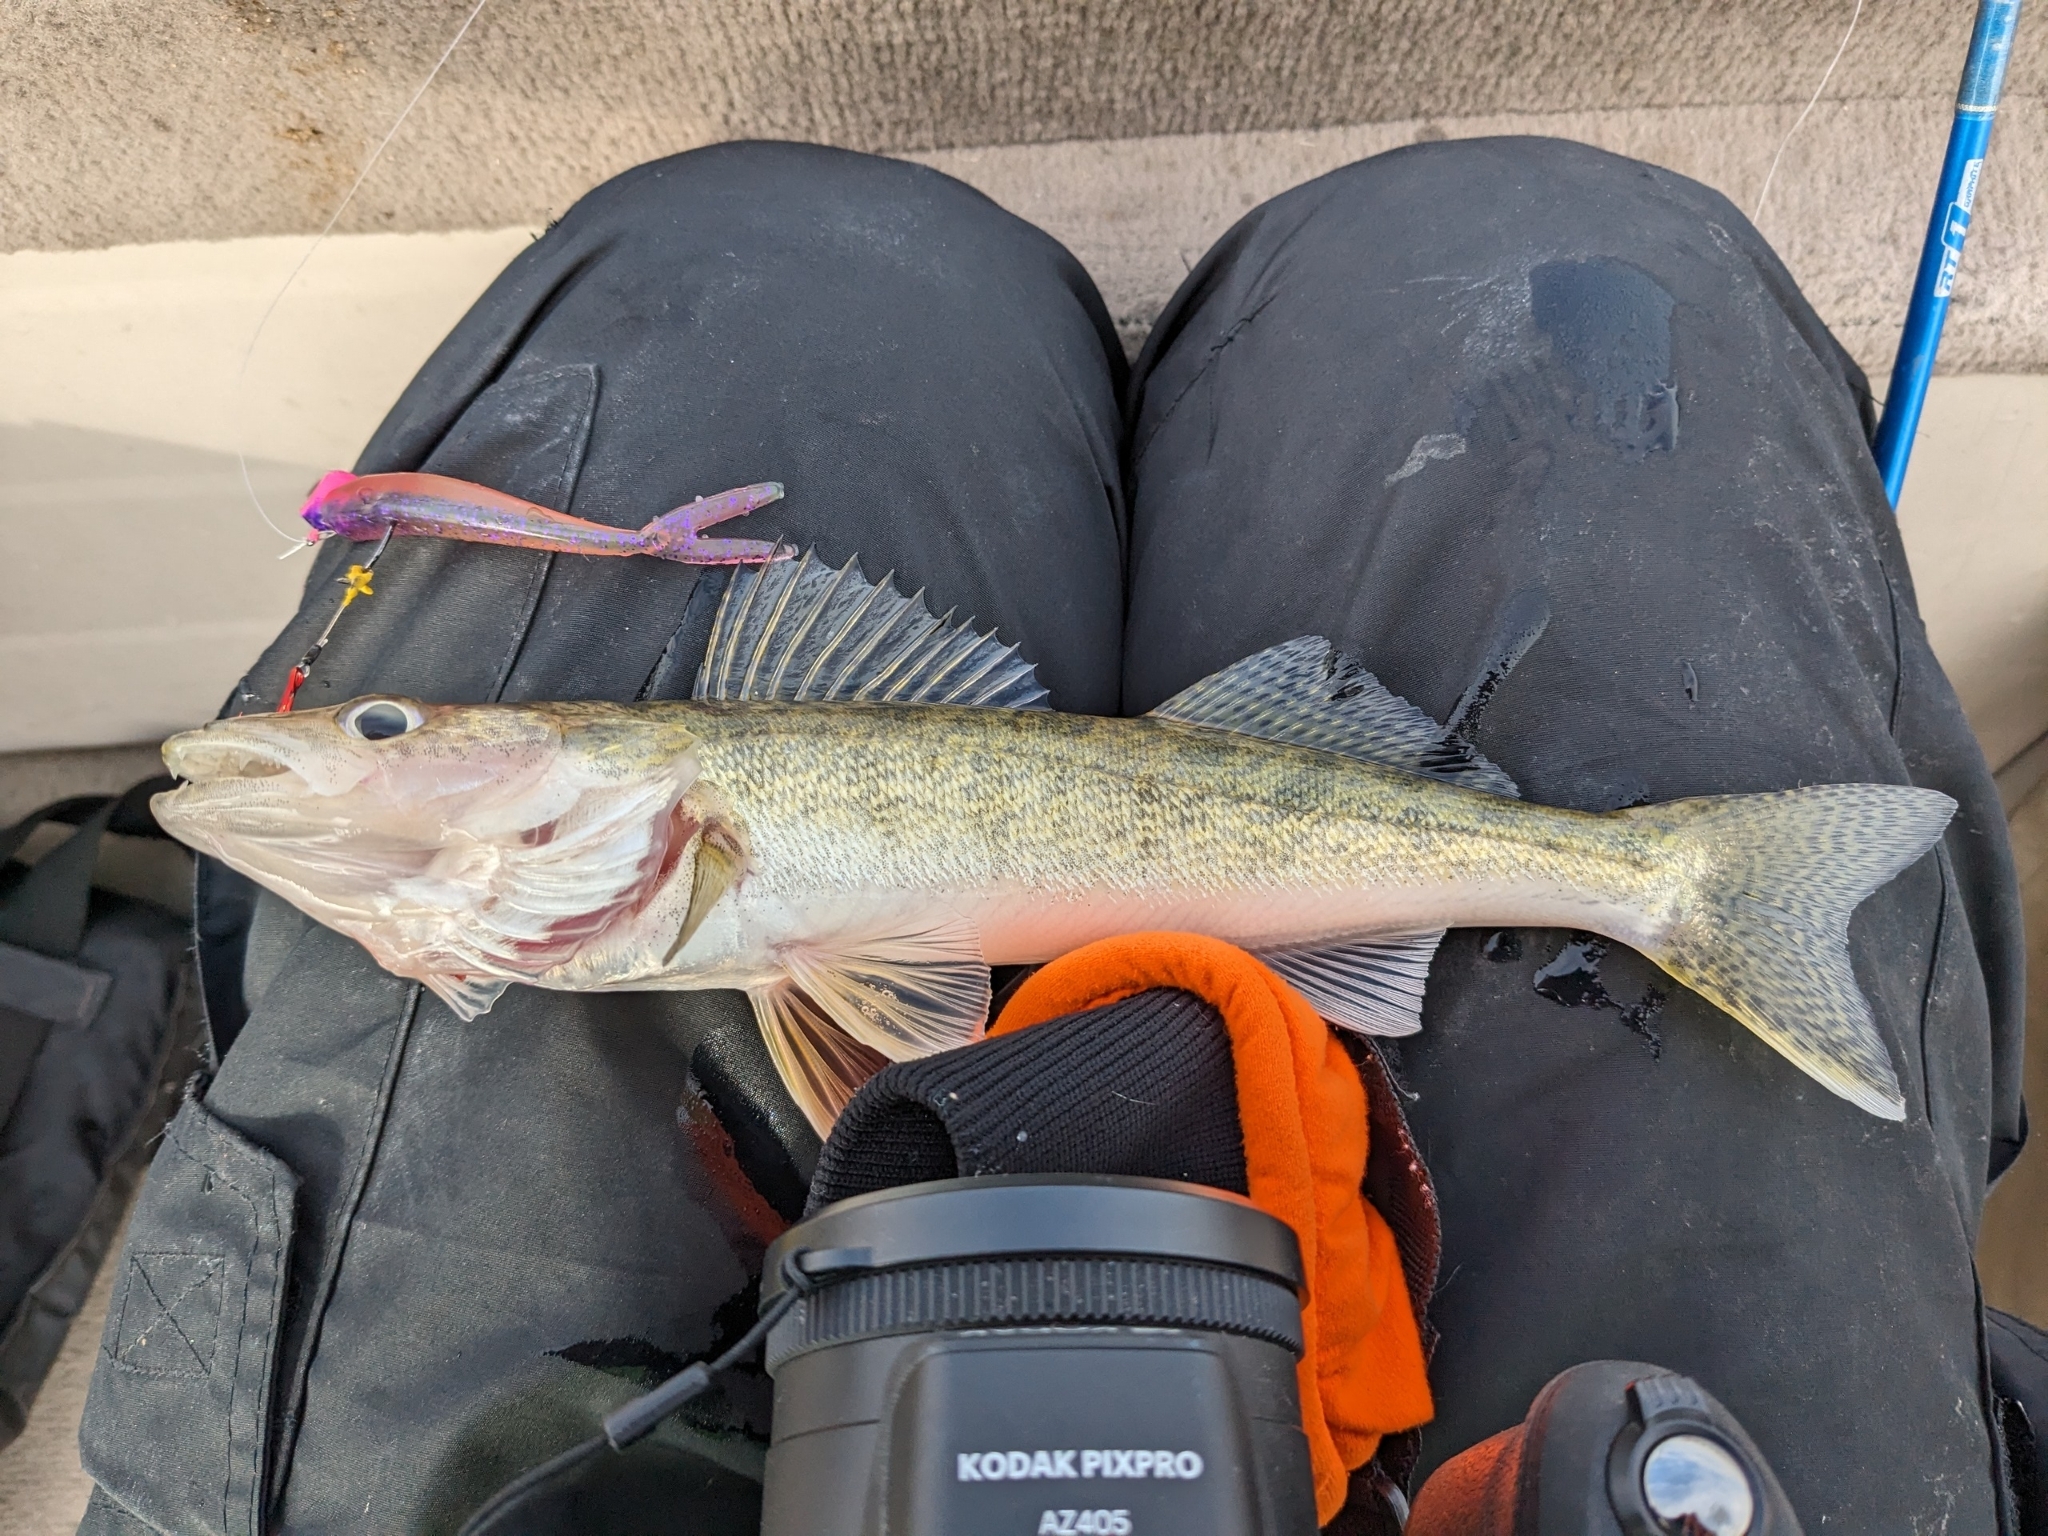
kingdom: Animalia
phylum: Chordata
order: Perciformes
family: Percidae
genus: Sander
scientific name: Sander vitreus
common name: Walleye
